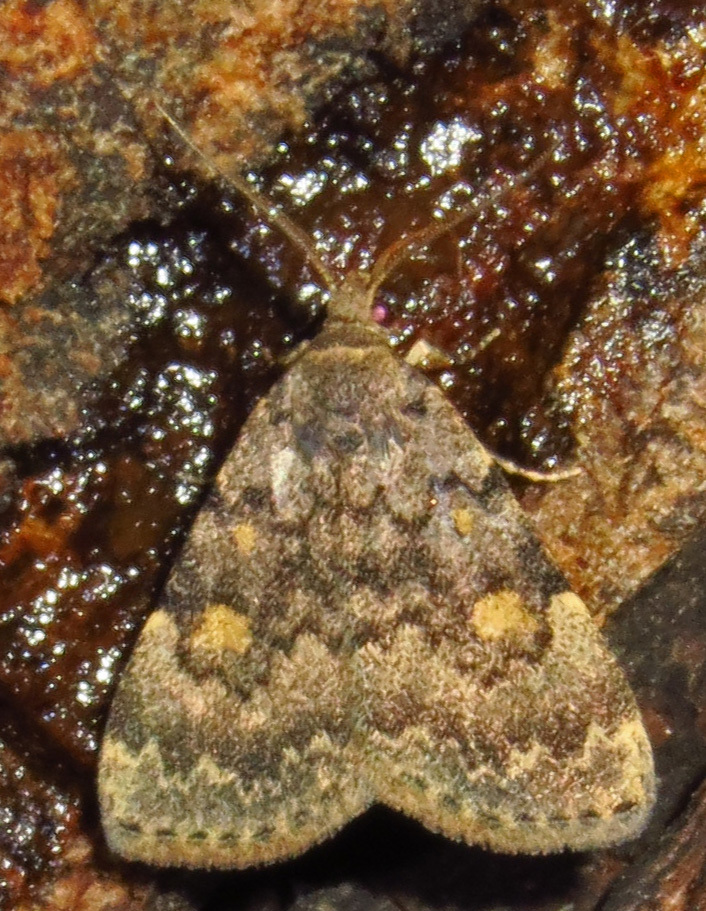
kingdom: Animalia
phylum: Arthropoda
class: Insecta
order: Lepidoptera
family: Erebidae
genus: Idia
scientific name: Idia aemula
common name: Common idia moth
